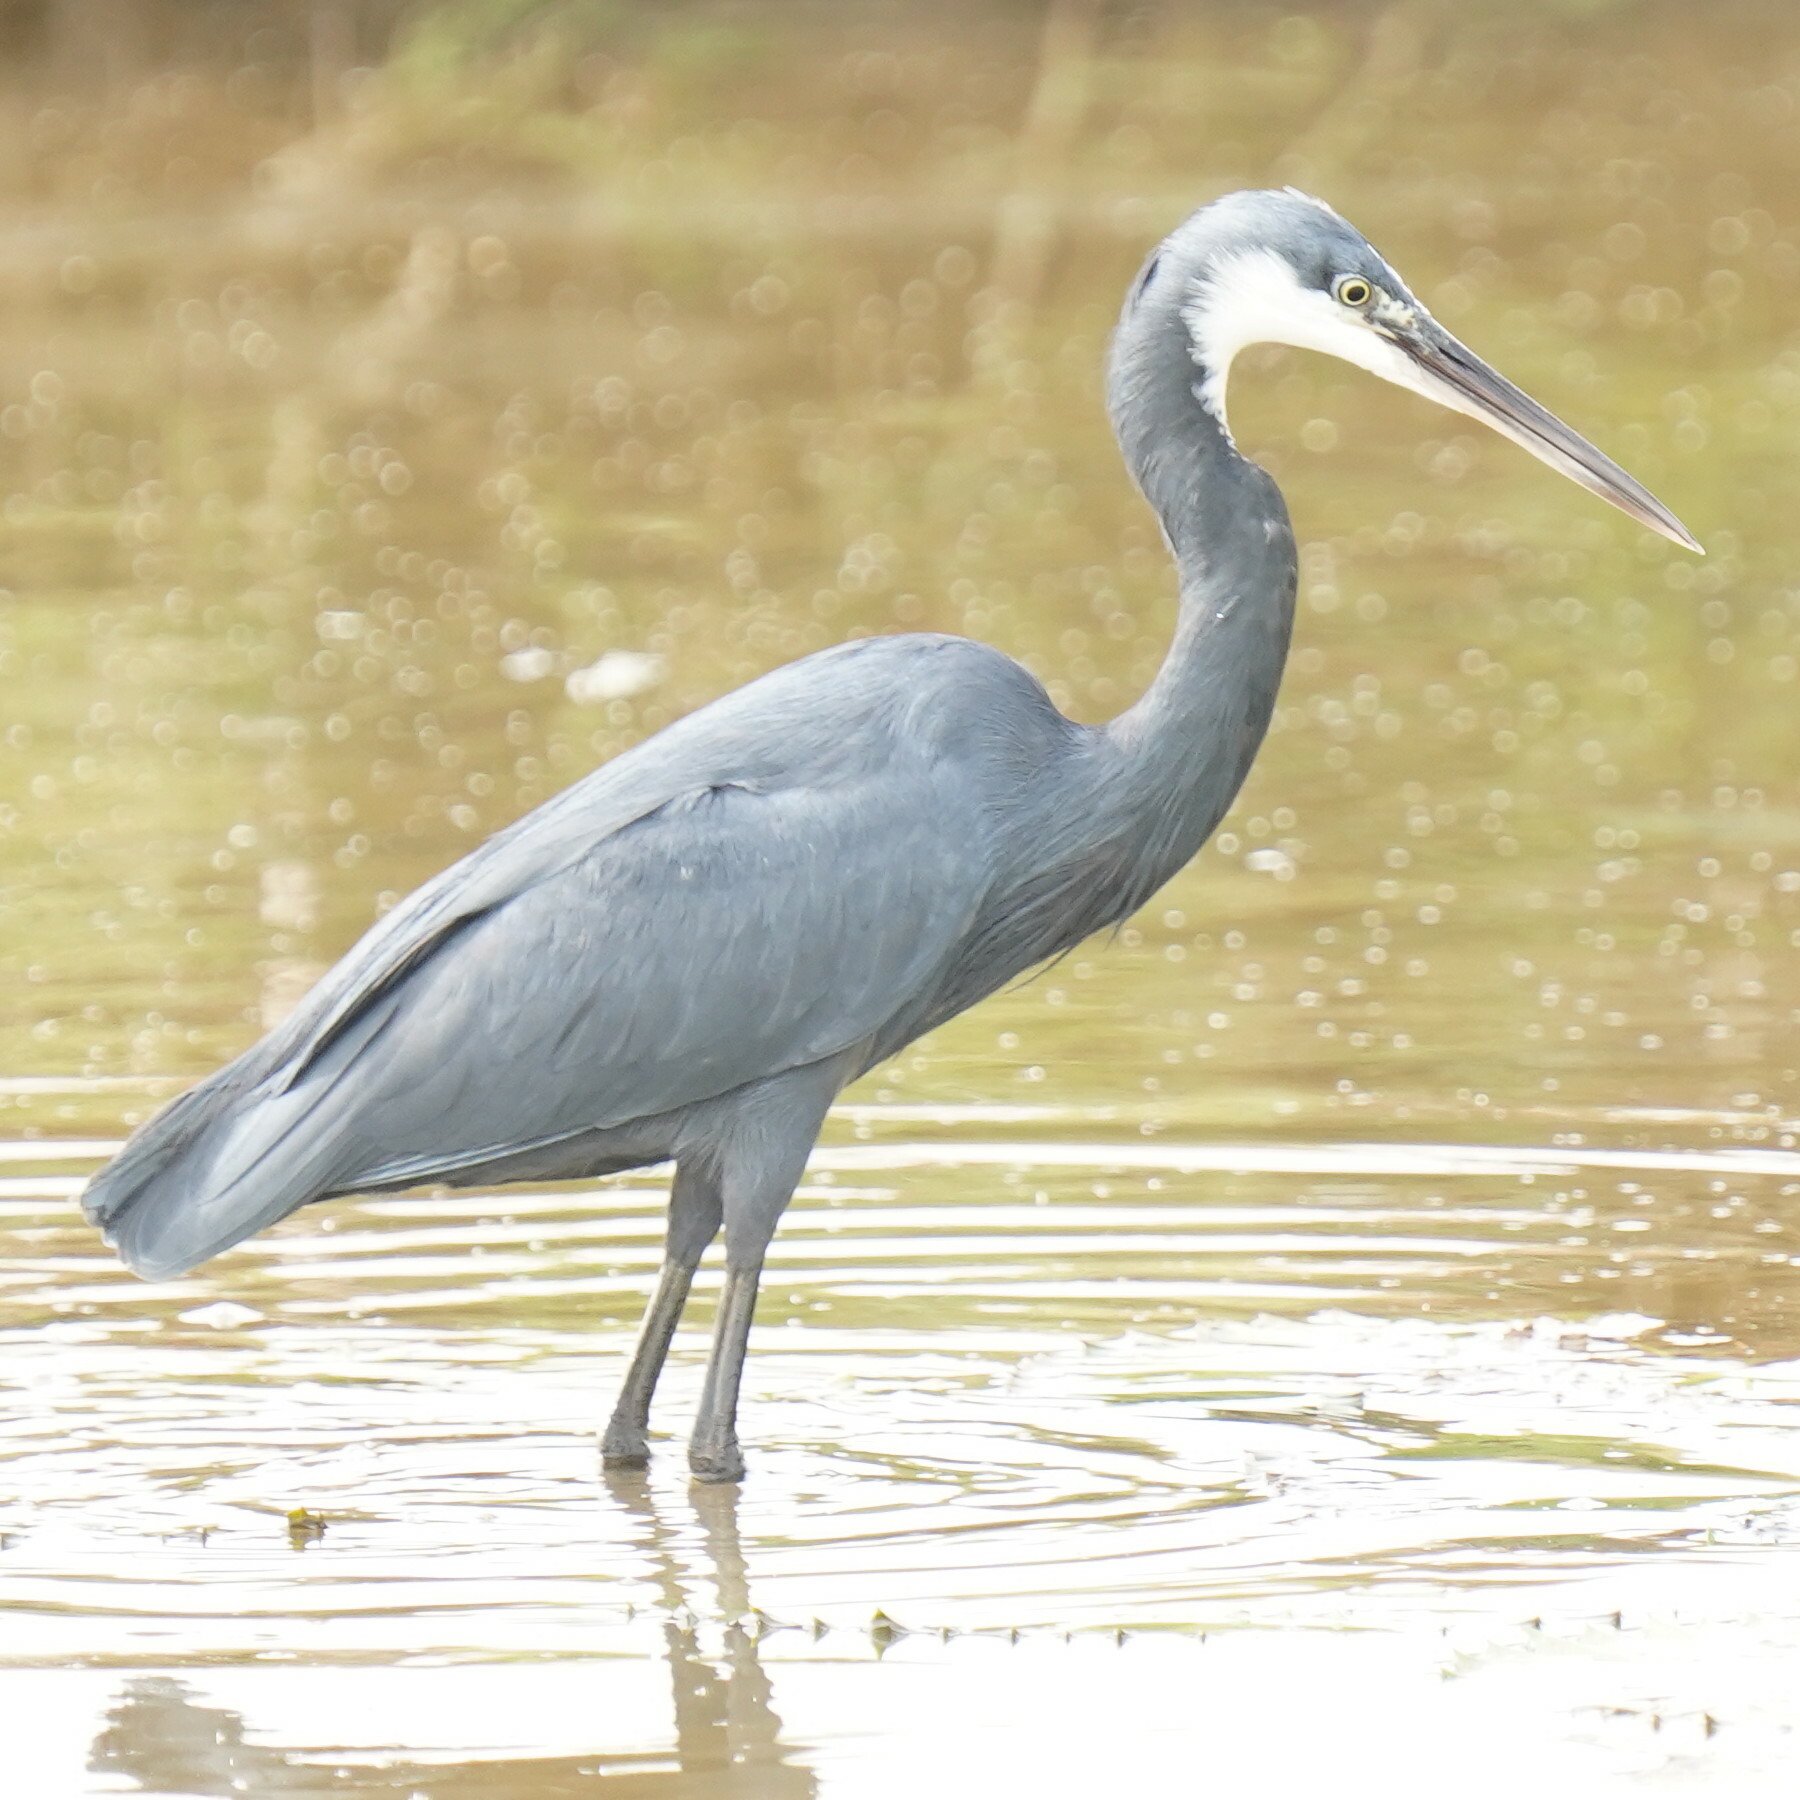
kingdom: Animalia
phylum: Chordata
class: Aves
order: Pelecaniformes
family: Ardeidae
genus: Egretta
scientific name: Egretta gularis
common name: Western reef-heron
